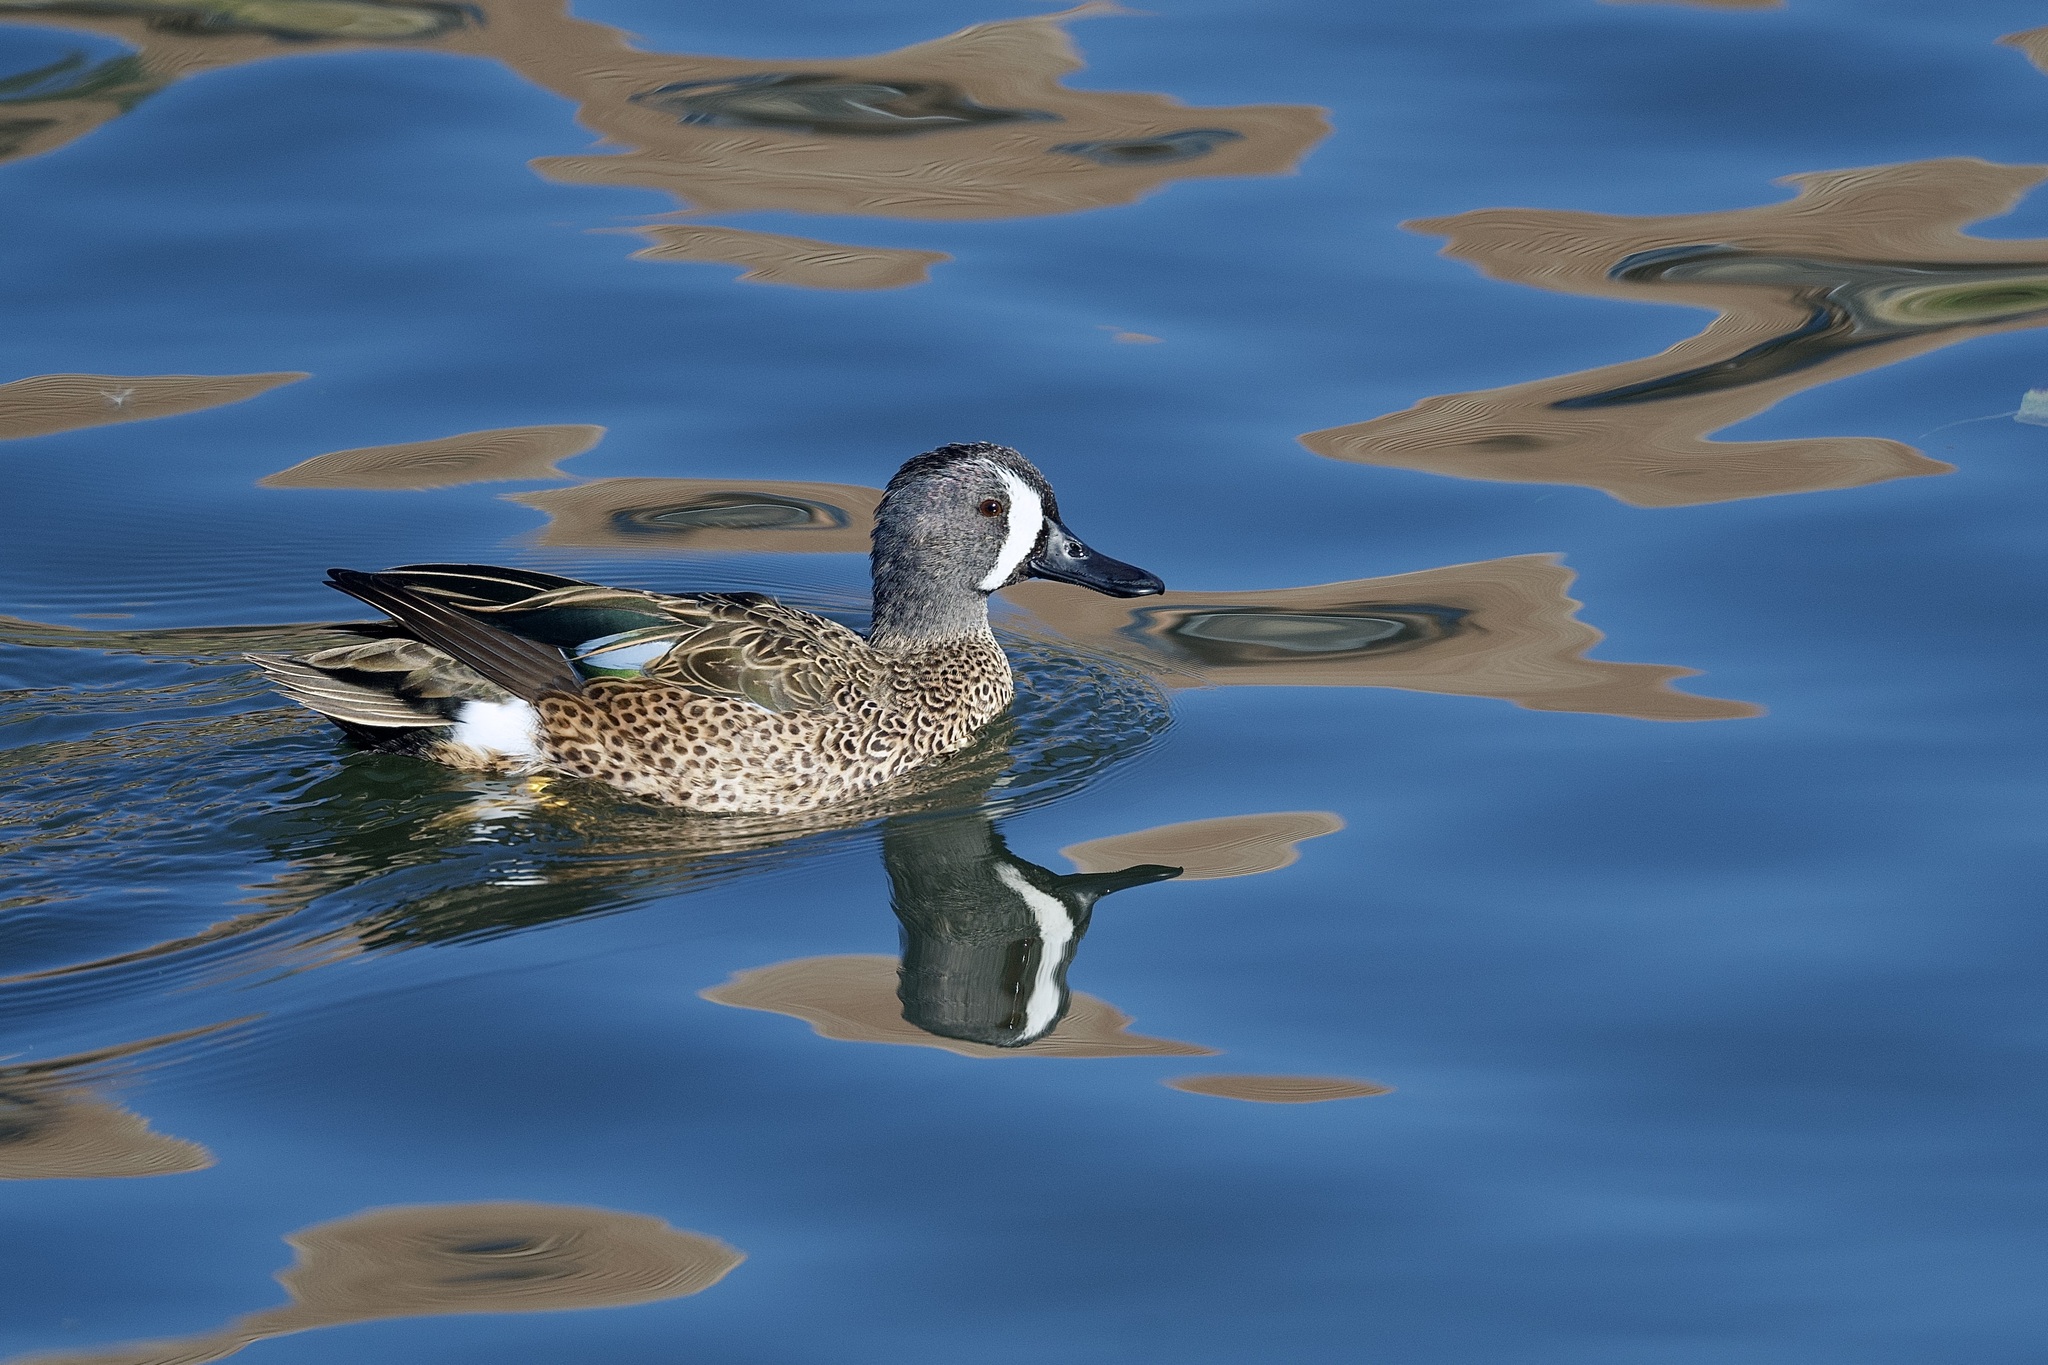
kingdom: Animalia
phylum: Chordata
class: Aves
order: Anseriformes
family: Anatidae
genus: Spatula
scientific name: Spatula discors
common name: Blue-winged teal
